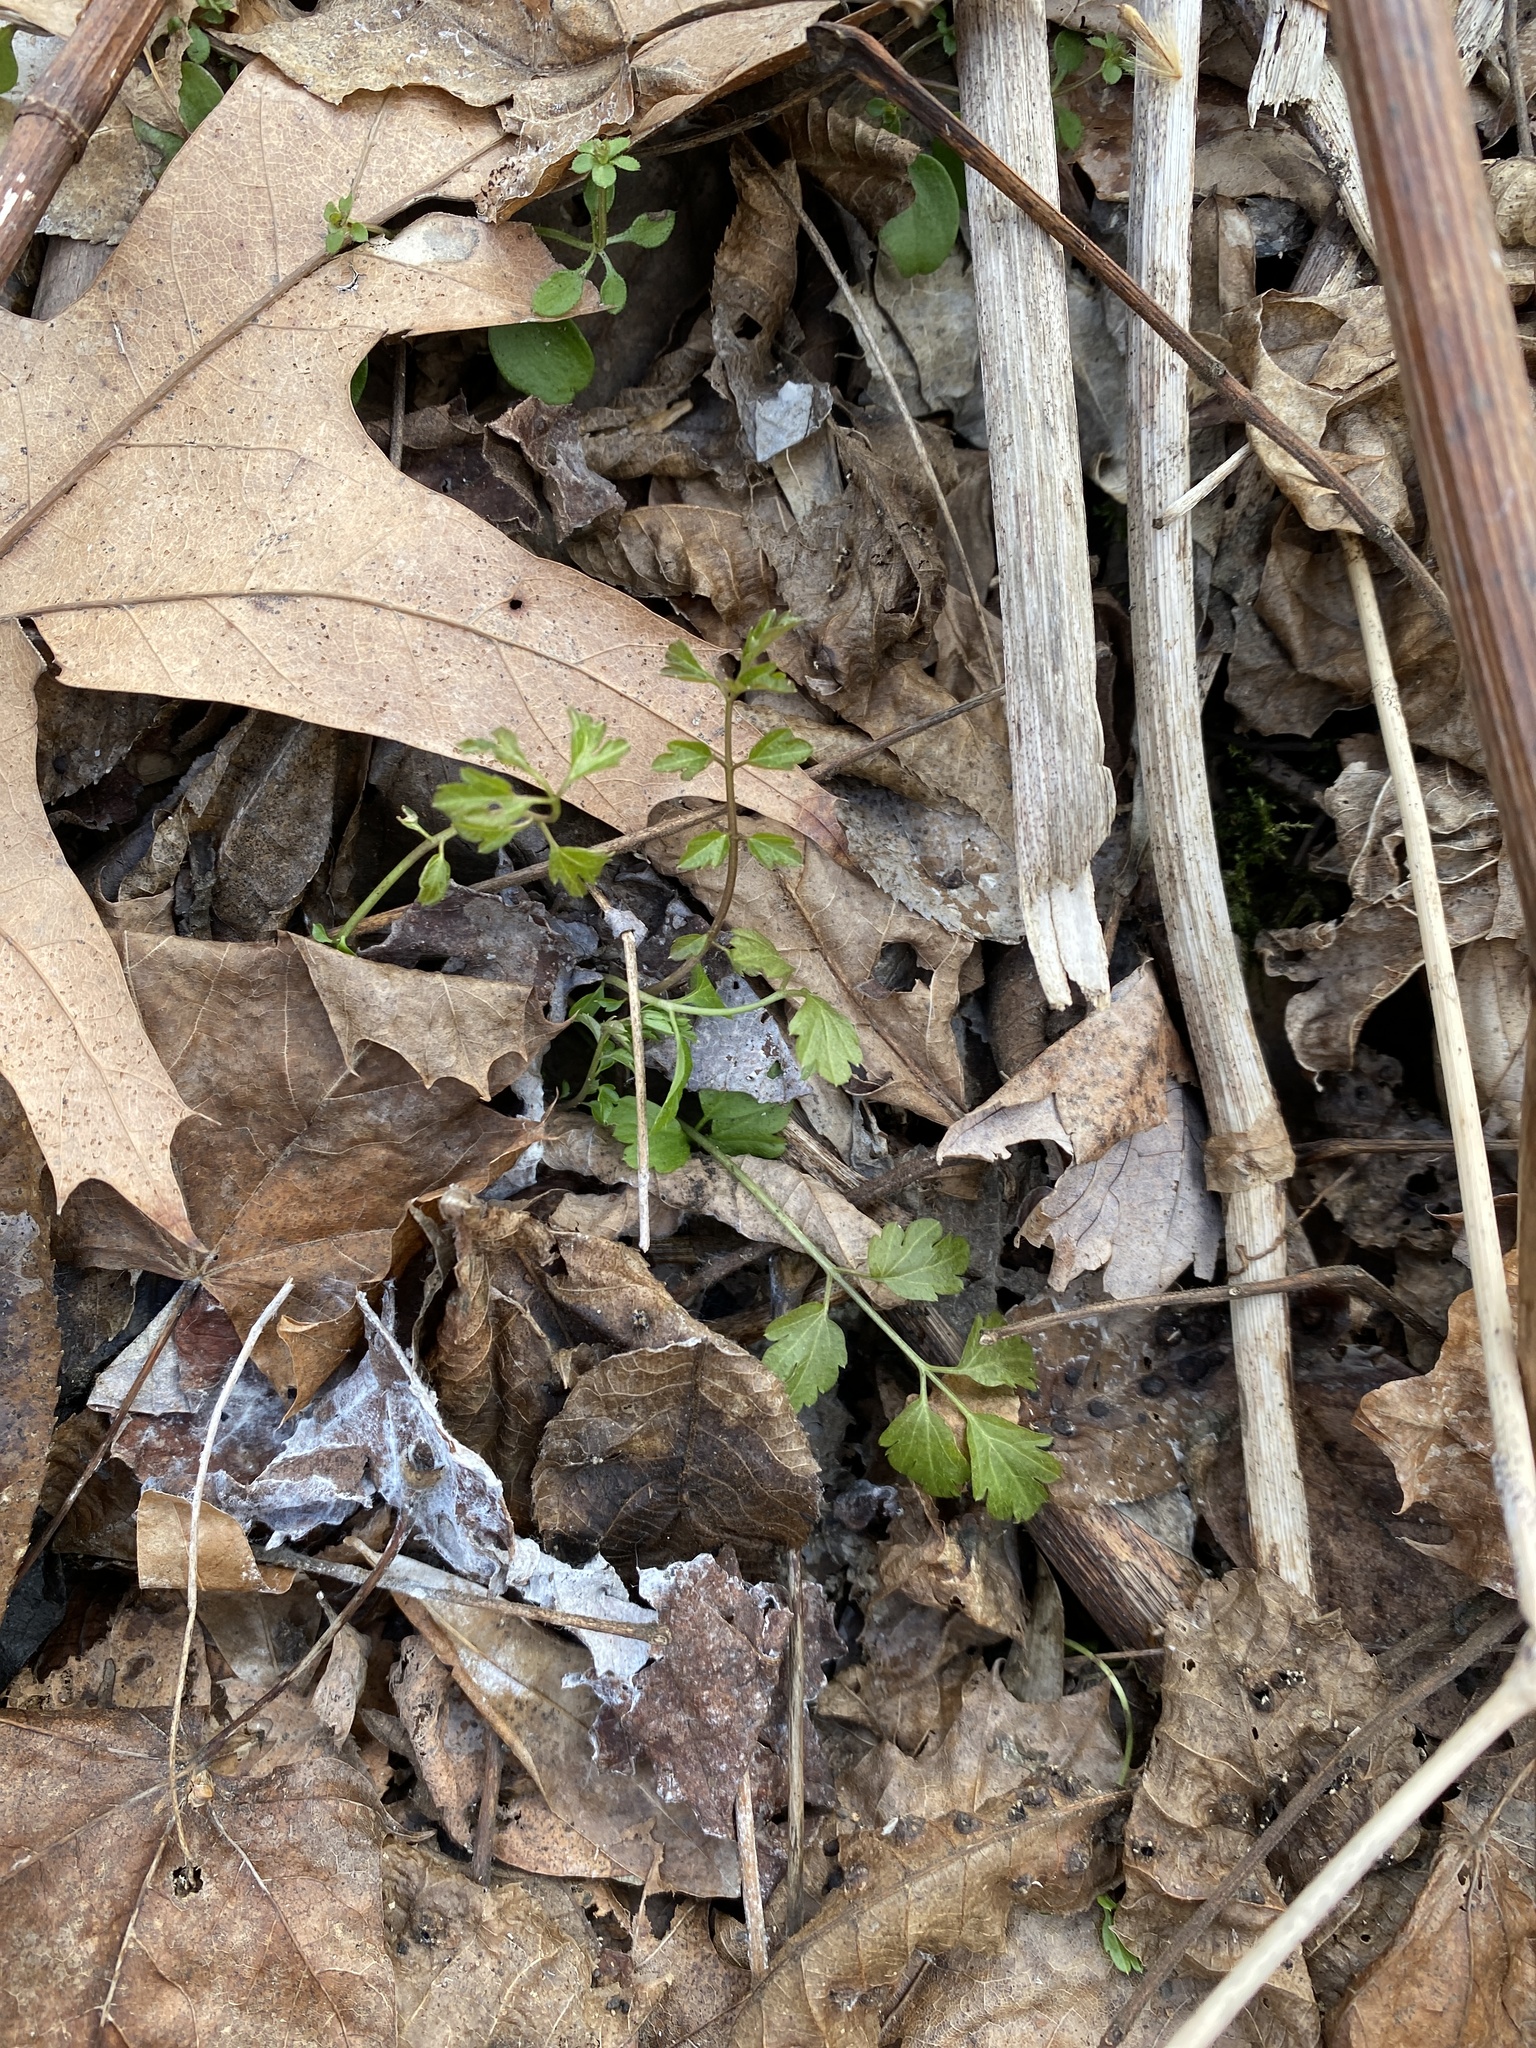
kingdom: Plantae
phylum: Tracheophyta
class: Magnoliopsida
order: Brassicales
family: Brassicaceae
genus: Cardamine
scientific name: Cardamine impatiens
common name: Narrow-leaved bitter-cress
